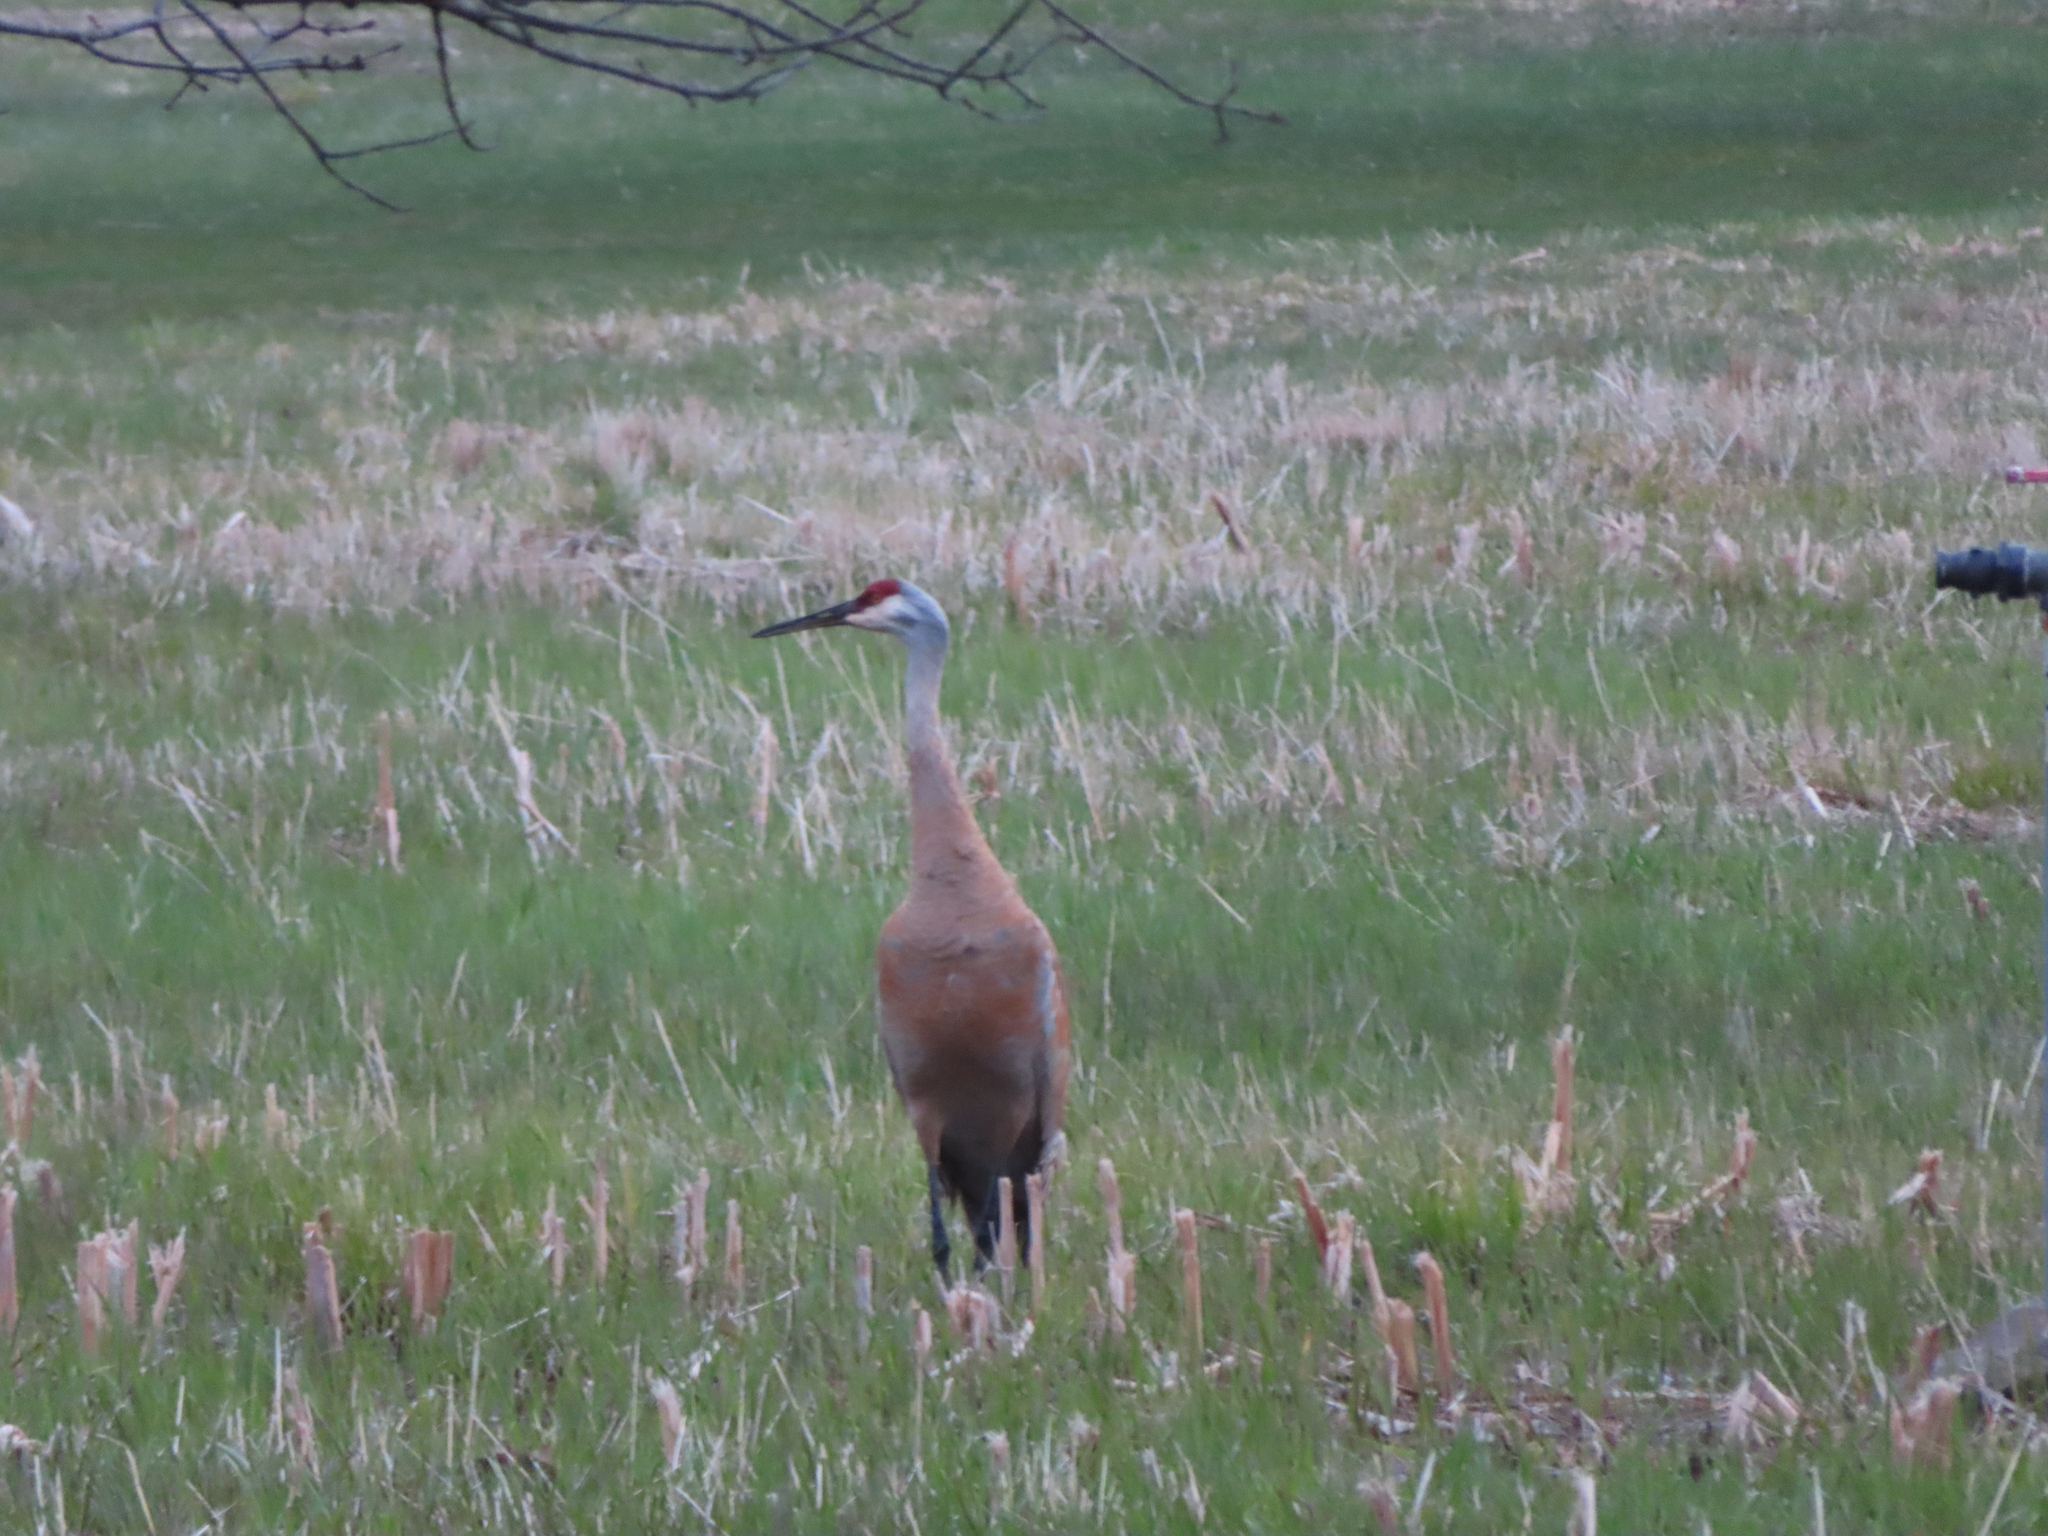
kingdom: Animalia
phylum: Chordata
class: Aves
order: Gruiformes
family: Gruidae
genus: Grus
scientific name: Grus canadensis
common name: Sandhill crane
